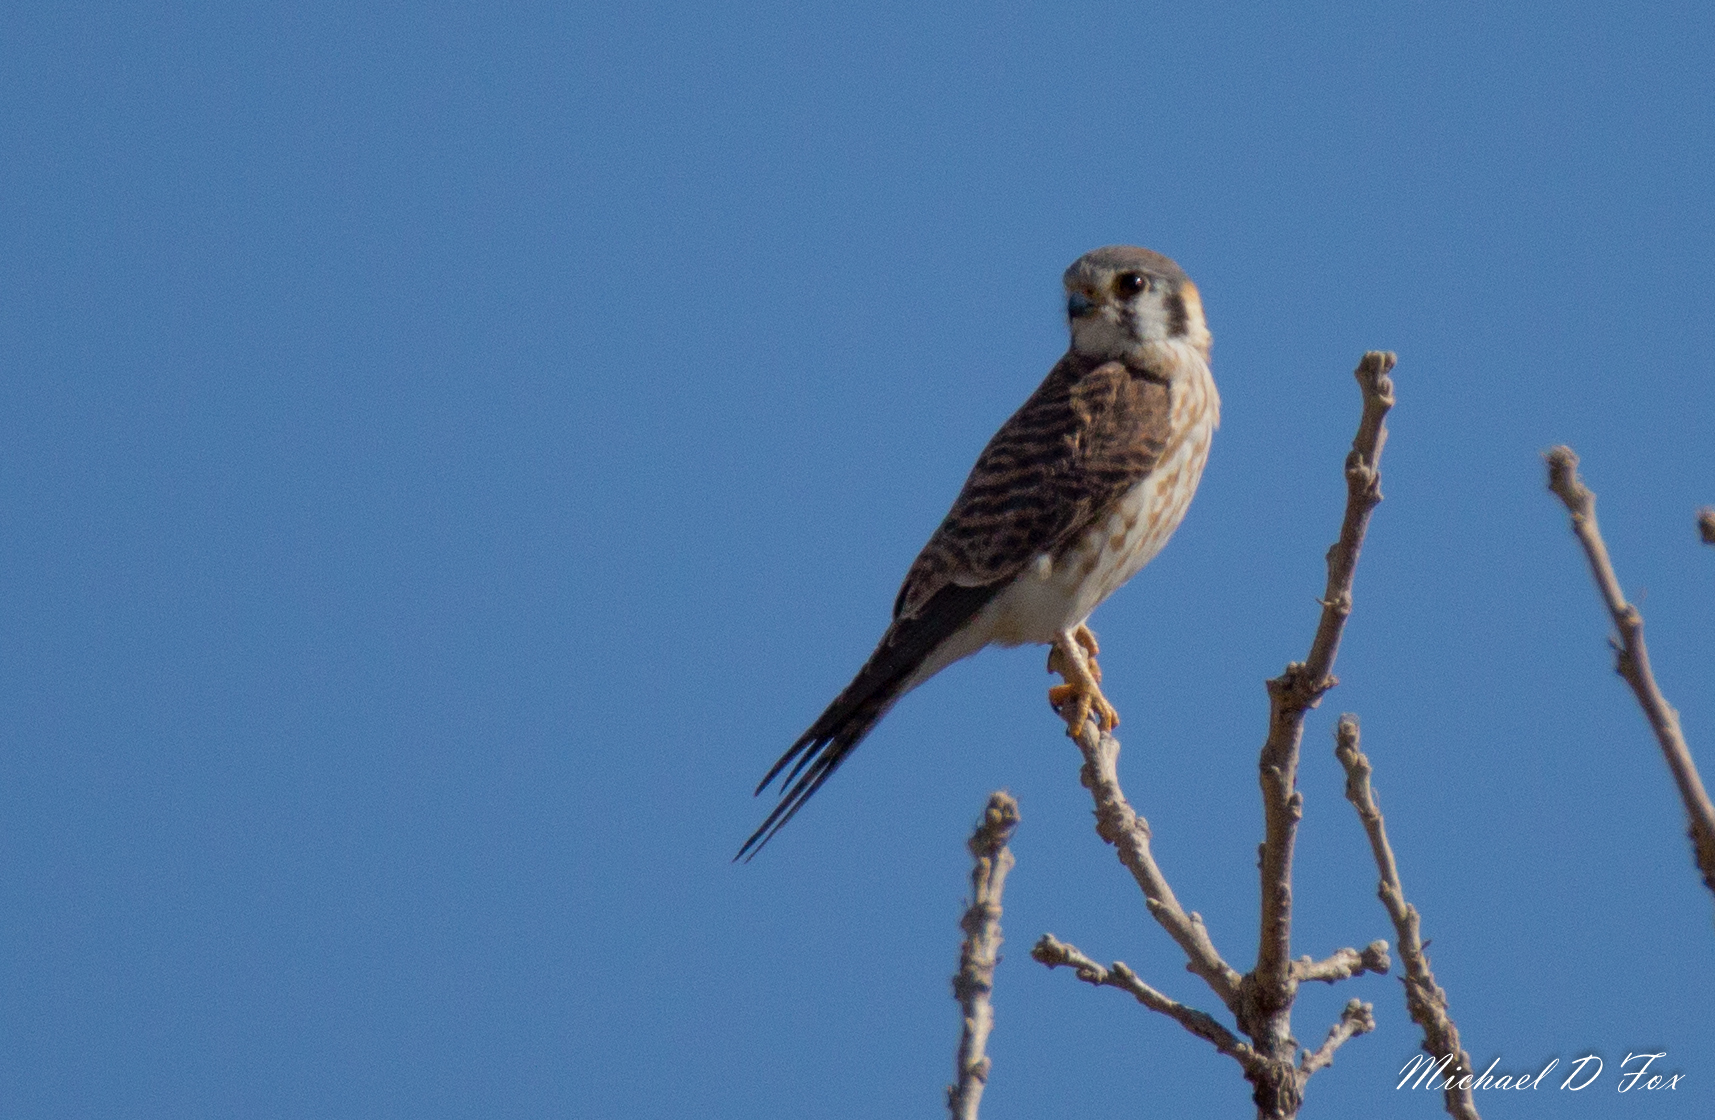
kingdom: Animalia
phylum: Chordata
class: Aves
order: Falconiformes
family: Falconidae
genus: Falco
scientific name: Falco sparverius
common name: American kestrel
